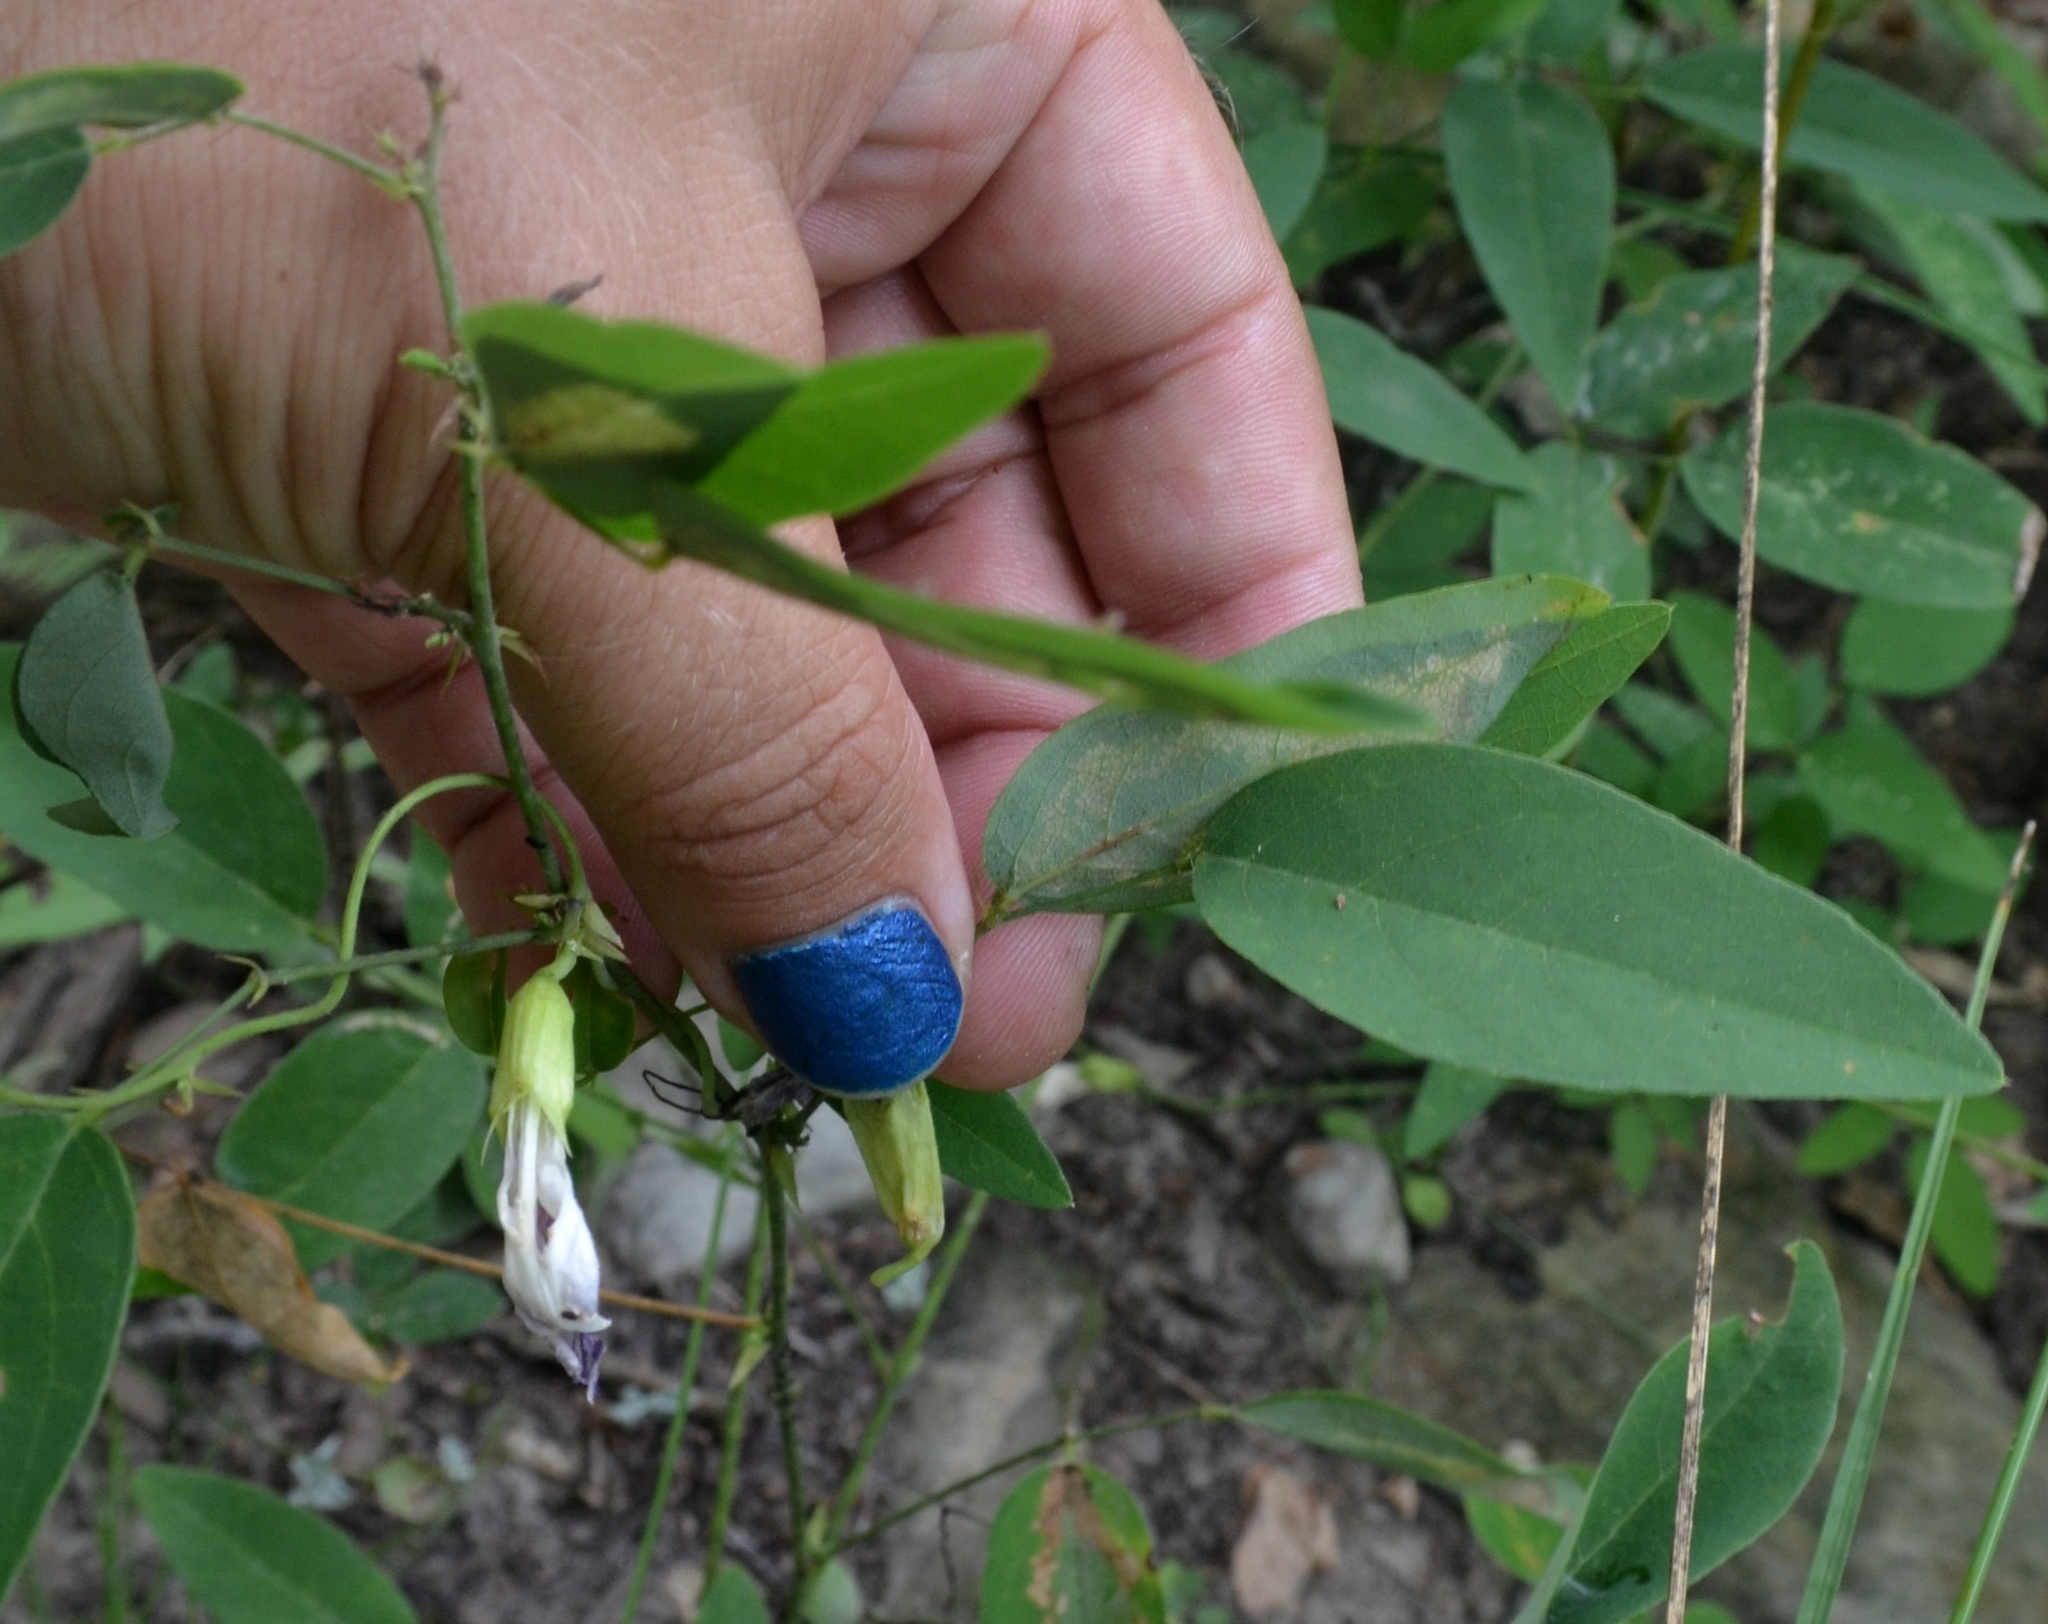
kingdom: Plantae
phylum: Tracheophyta
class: Magnoliopsida
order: Fabales
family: Fabaceae
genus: Clitoria
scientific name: Clitoria mariana
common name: Butterfly-pea
